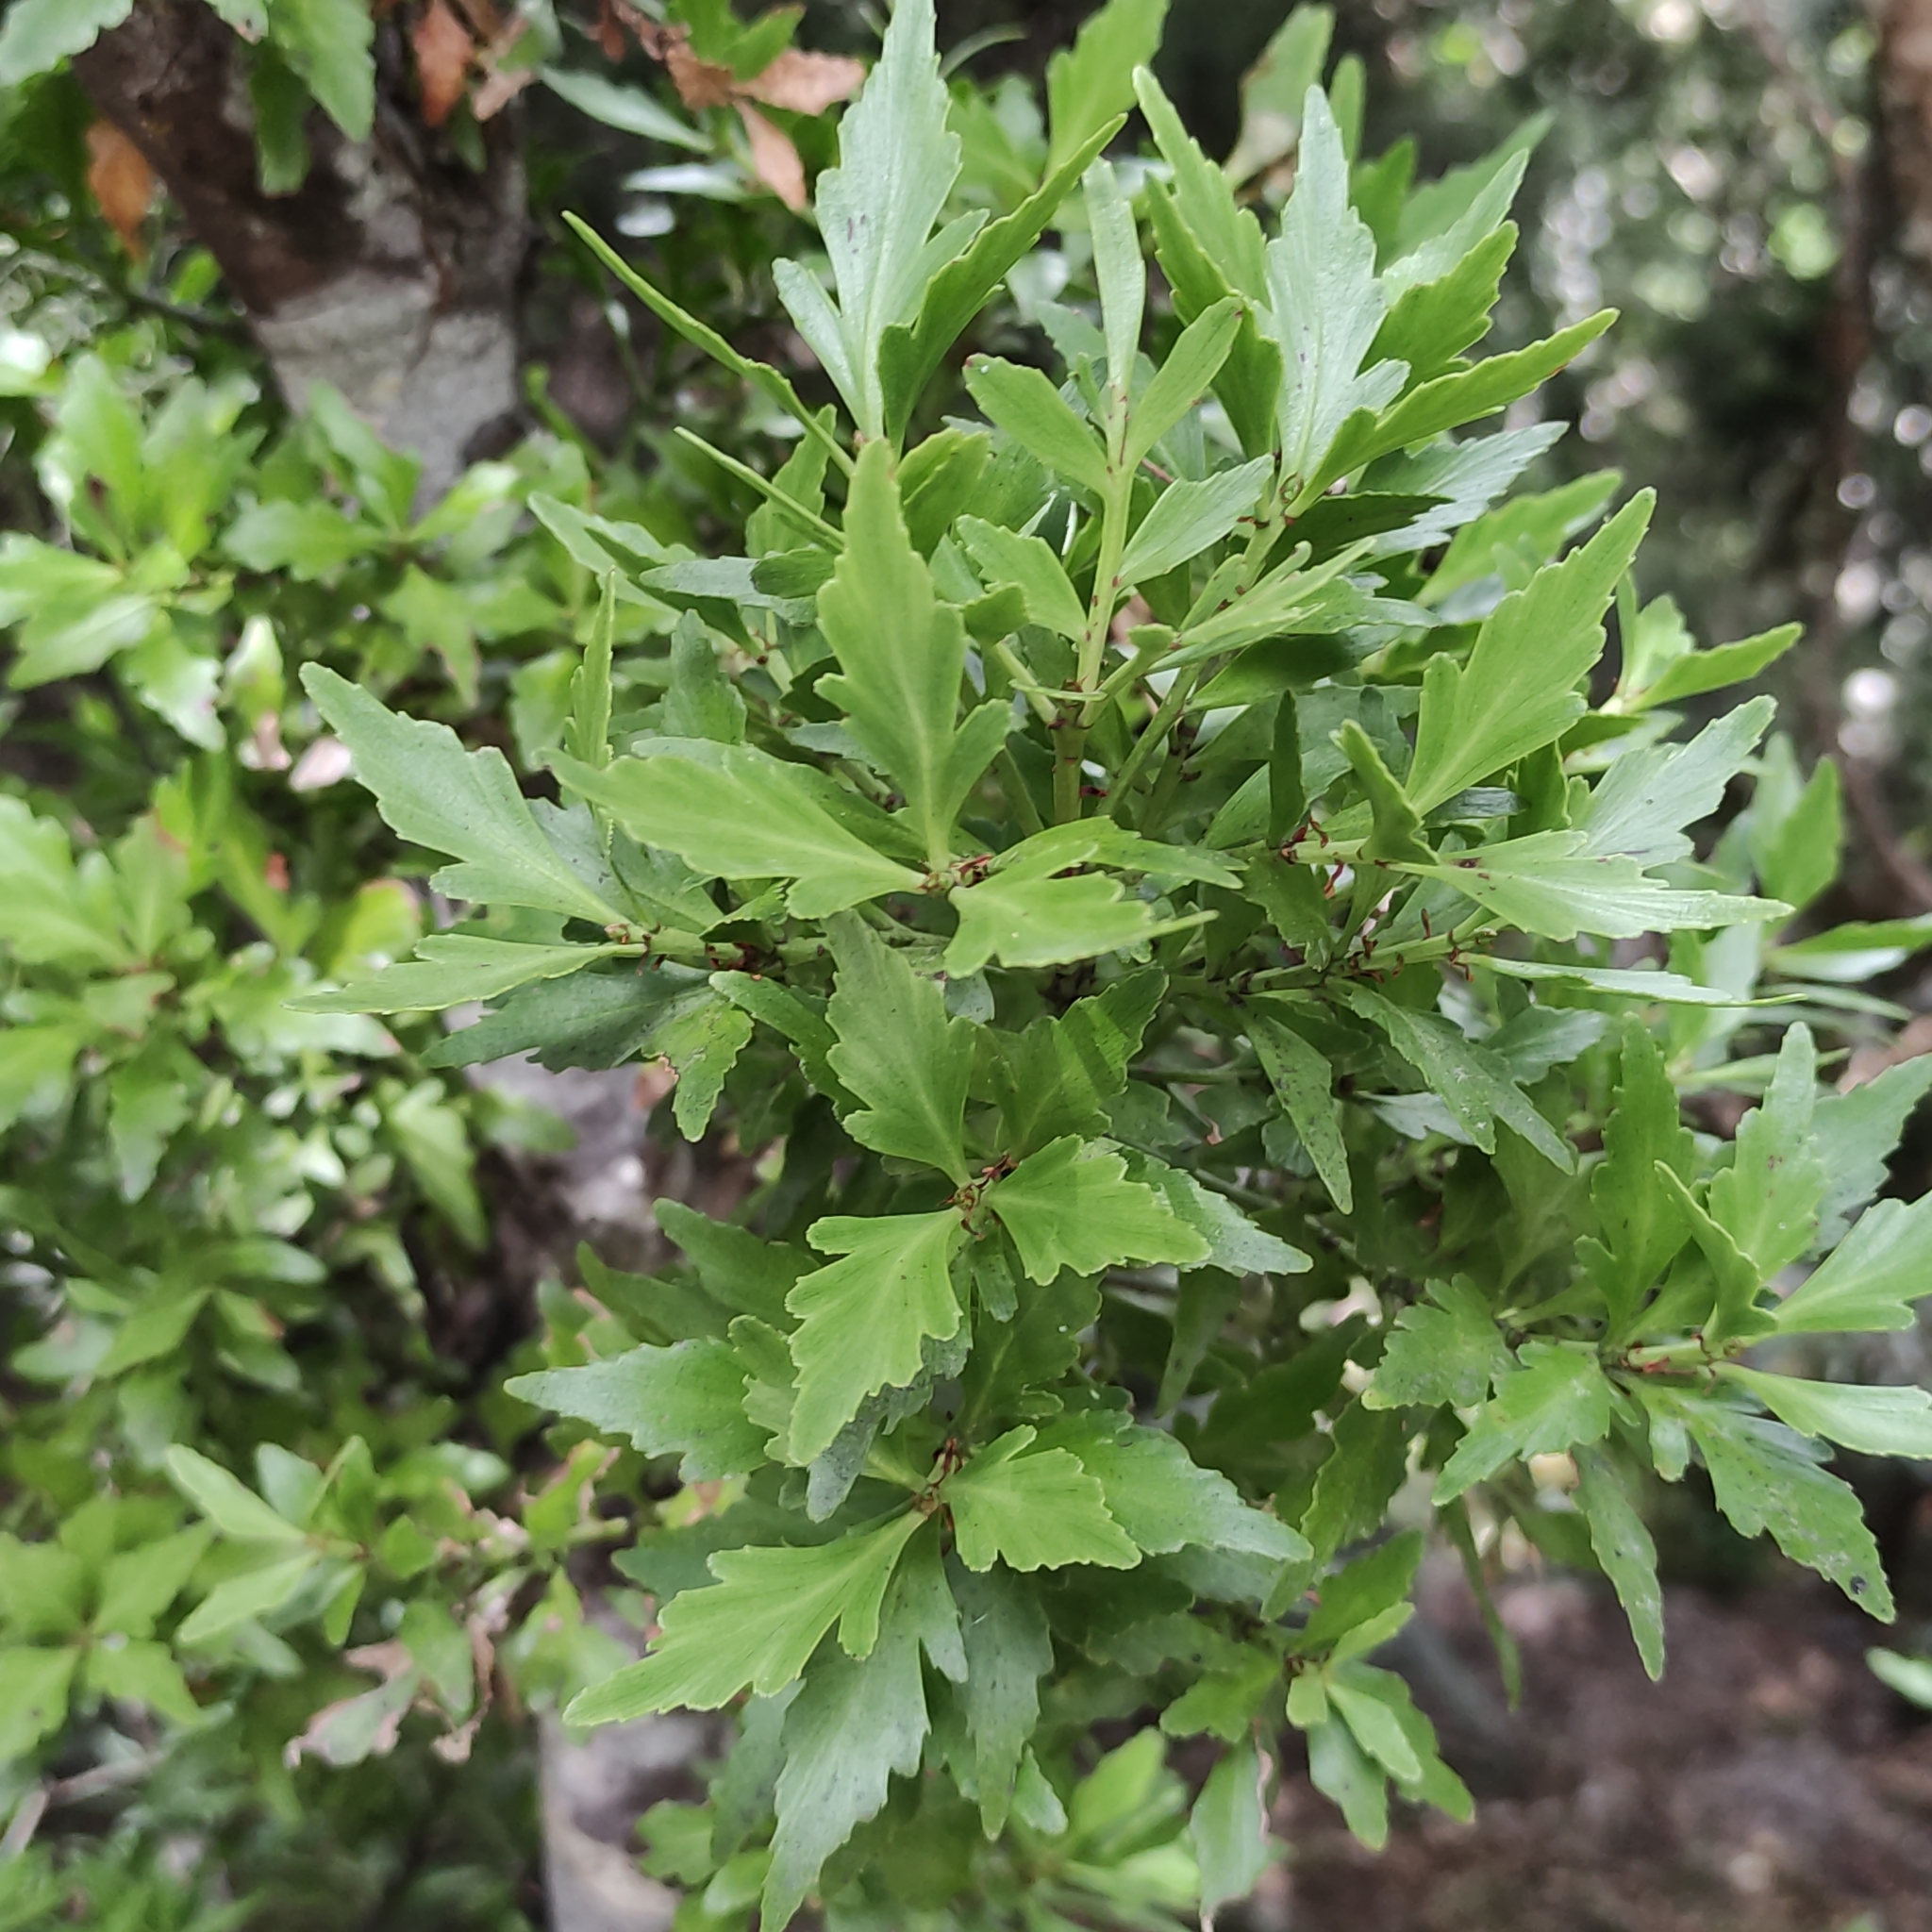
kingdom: Plantae
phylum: Tracheophyta
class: Pinopsida
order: Pinales
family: Phyllocladaceae
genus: Phyllocladus
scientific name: Phyllocladus trichomanoides
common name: Celery pine
